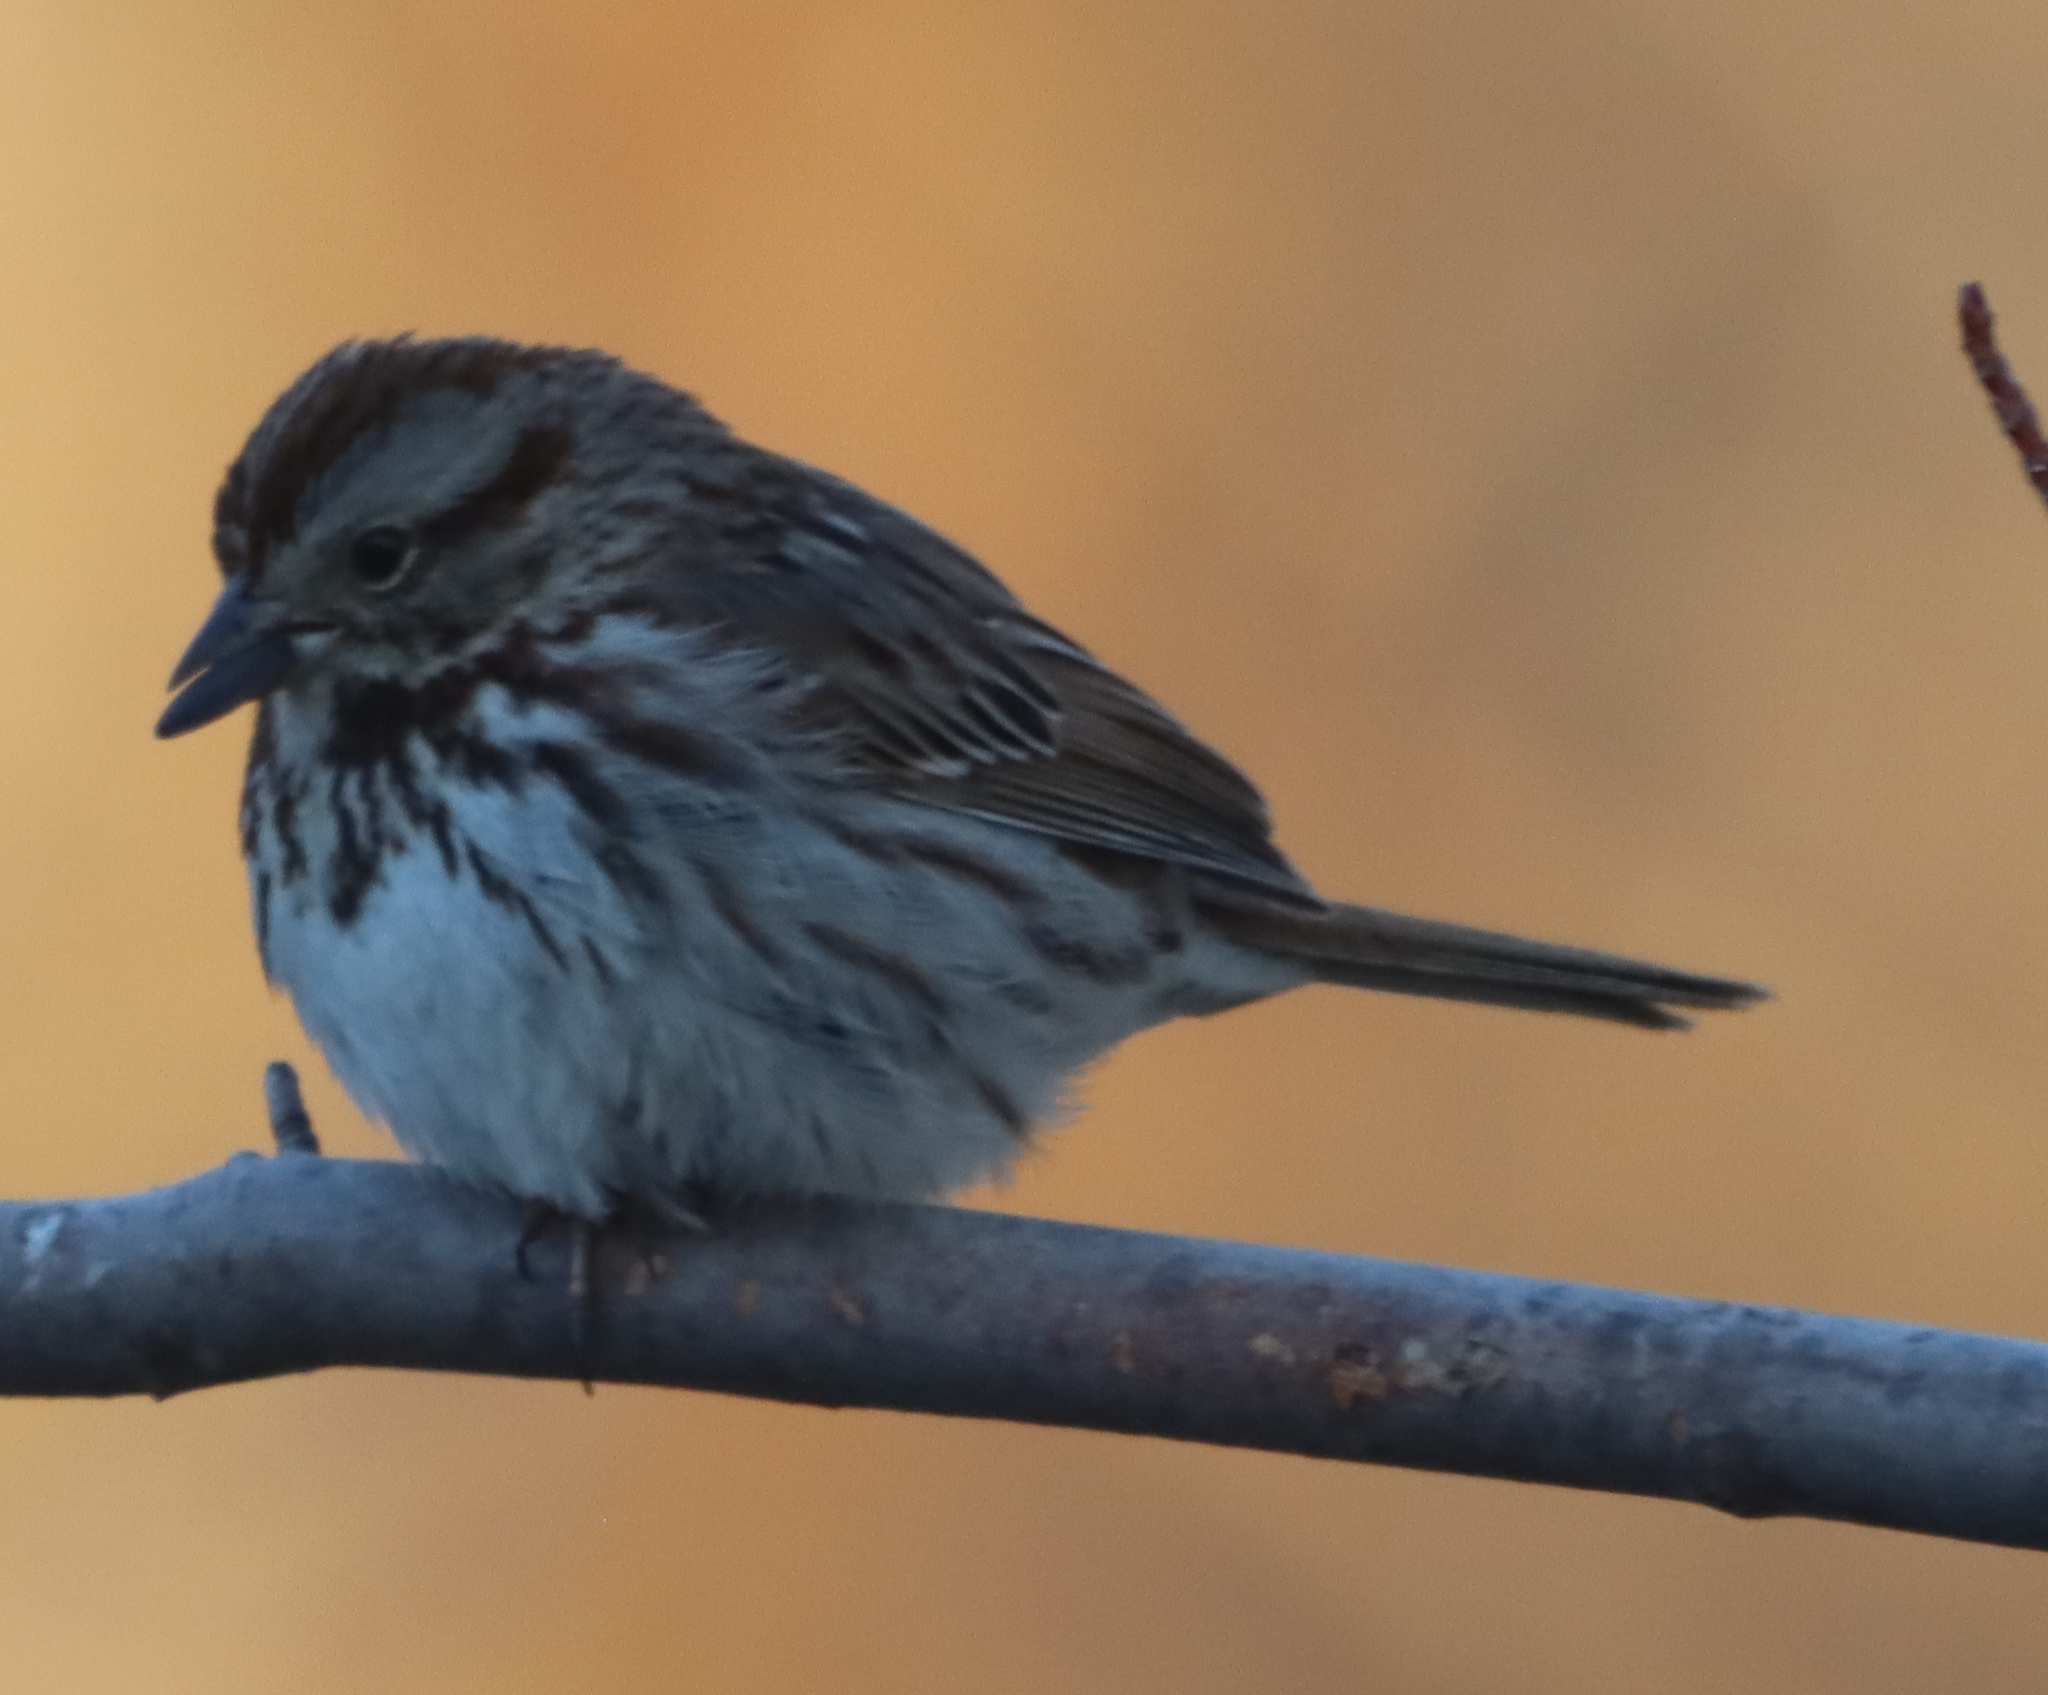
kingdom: Animalia
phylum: Chordata
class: Aves
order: Passeriformes
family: Passerellidae
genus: Melospiza
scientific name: Melospiza melodia
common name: Song sparrow
